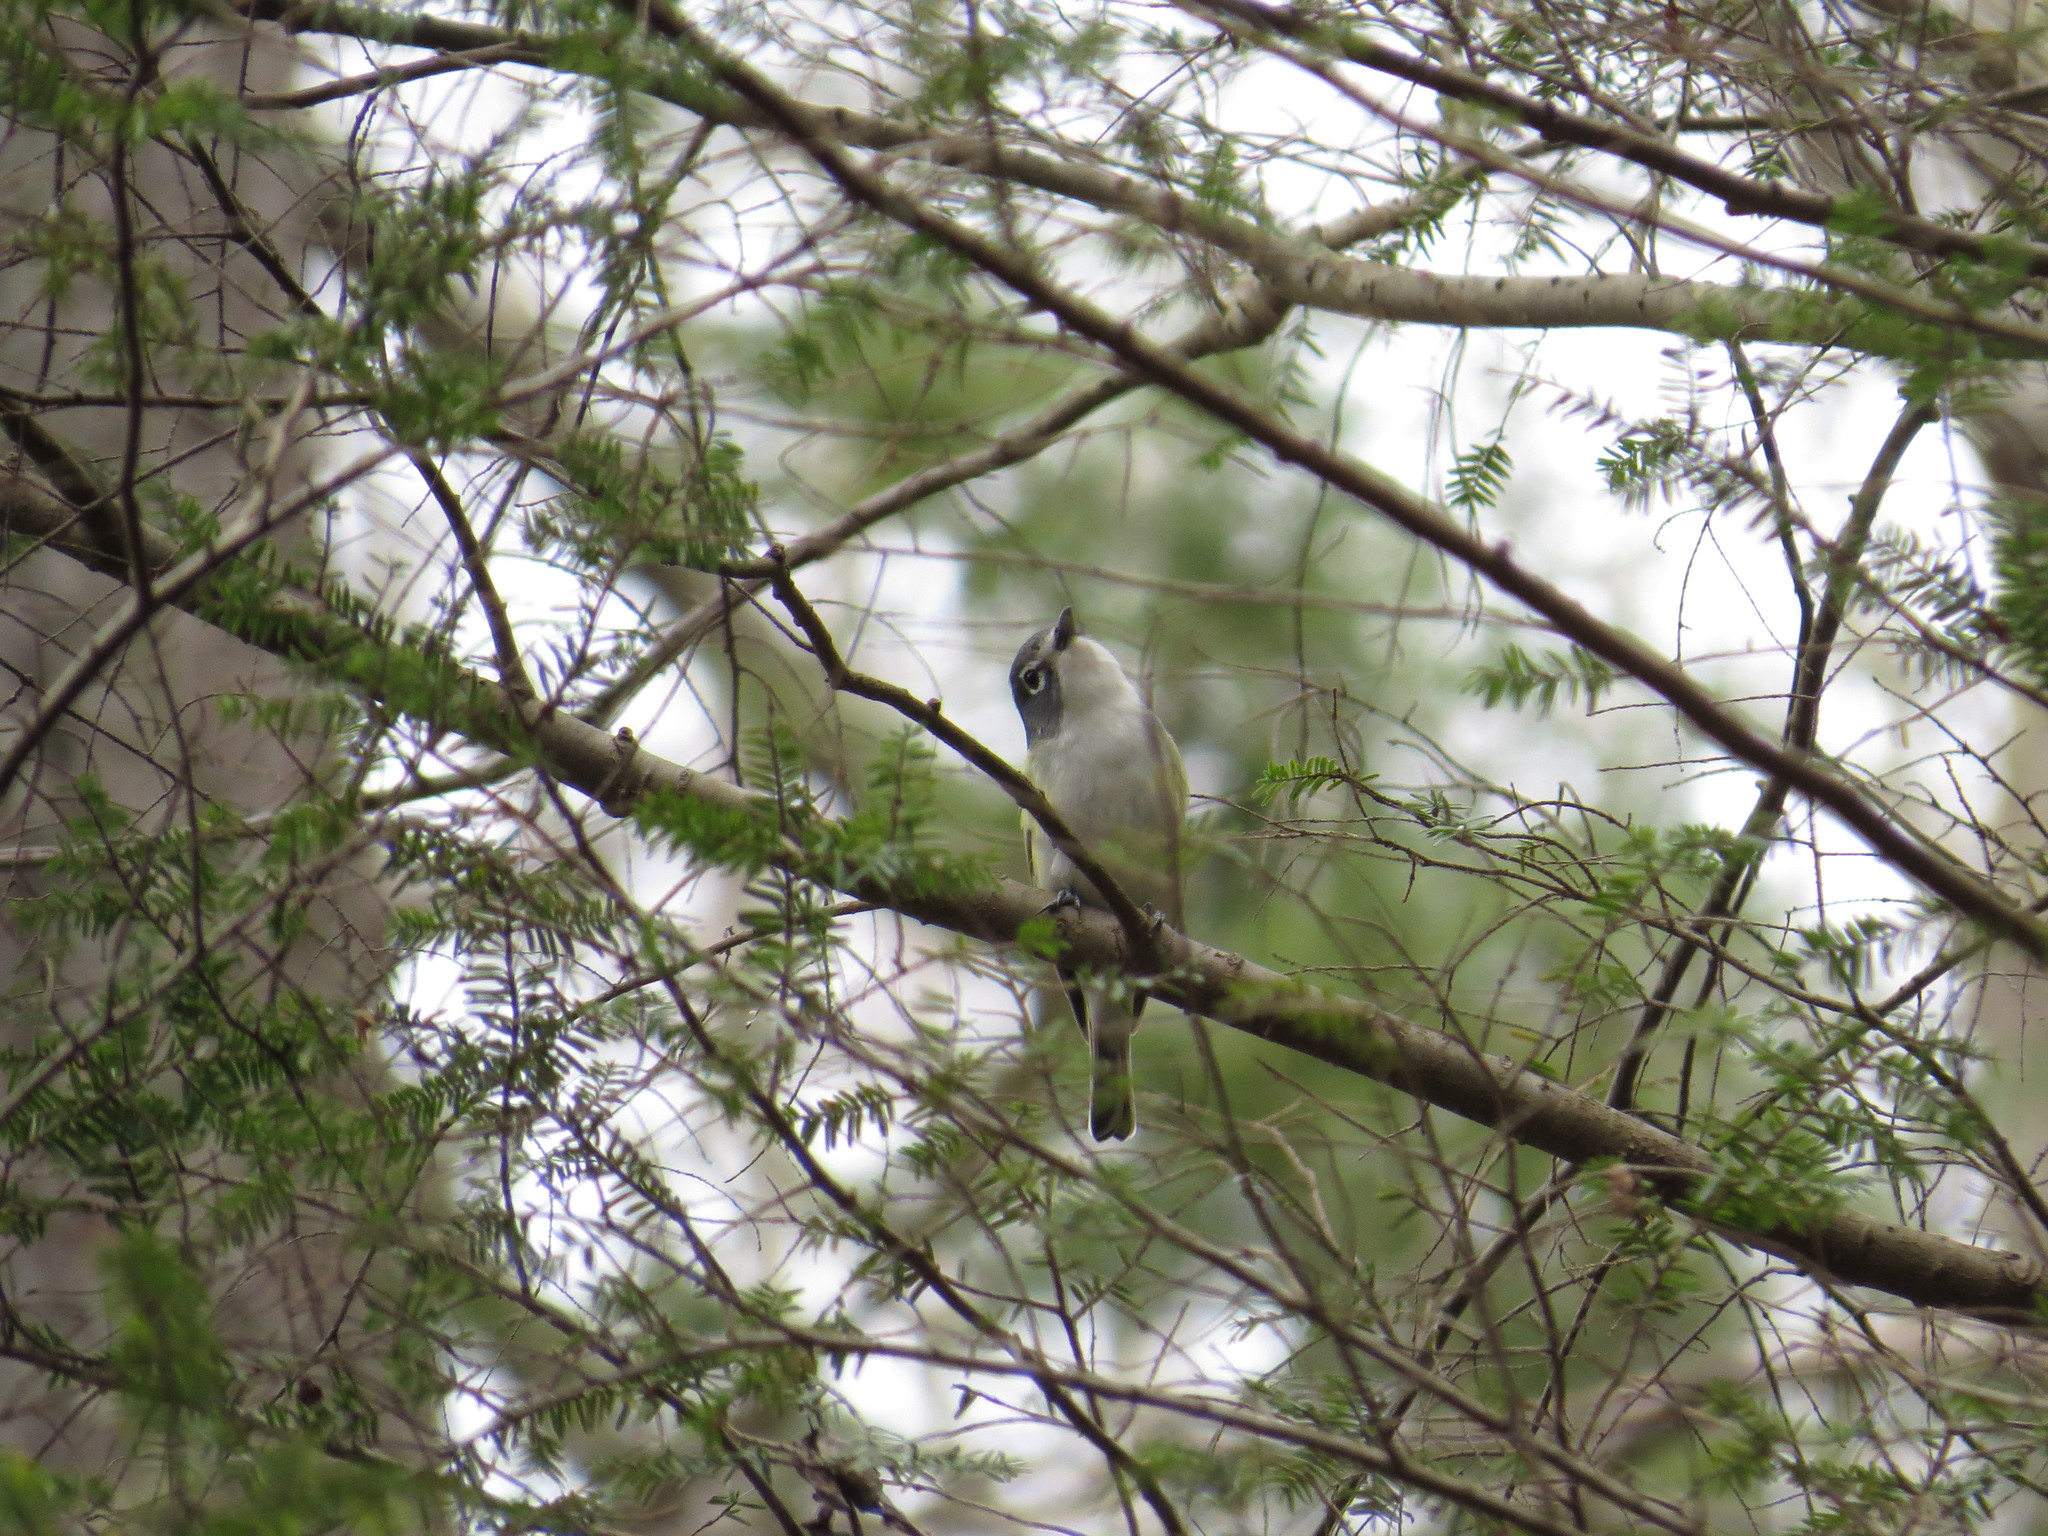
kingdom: Animalia
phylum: Chordata
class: Aves
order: Passeriformes
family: Vireonidae
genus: Vireo
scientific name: Vireo solitarius
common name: Blue-headed vireo
